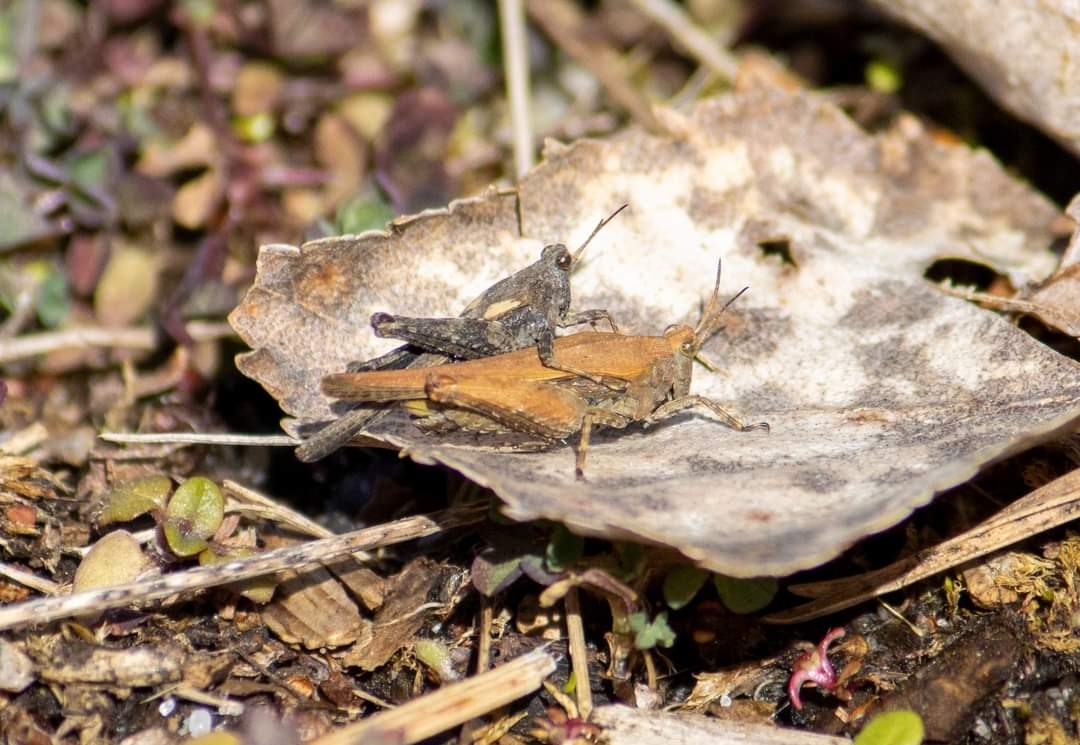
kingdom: Animalia
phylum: Arthropoda
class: Insecta
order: Orthoptera
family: Tetrigidae
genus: Tetrix
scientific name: Tetrix subulata
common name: Slender ground-hopper
